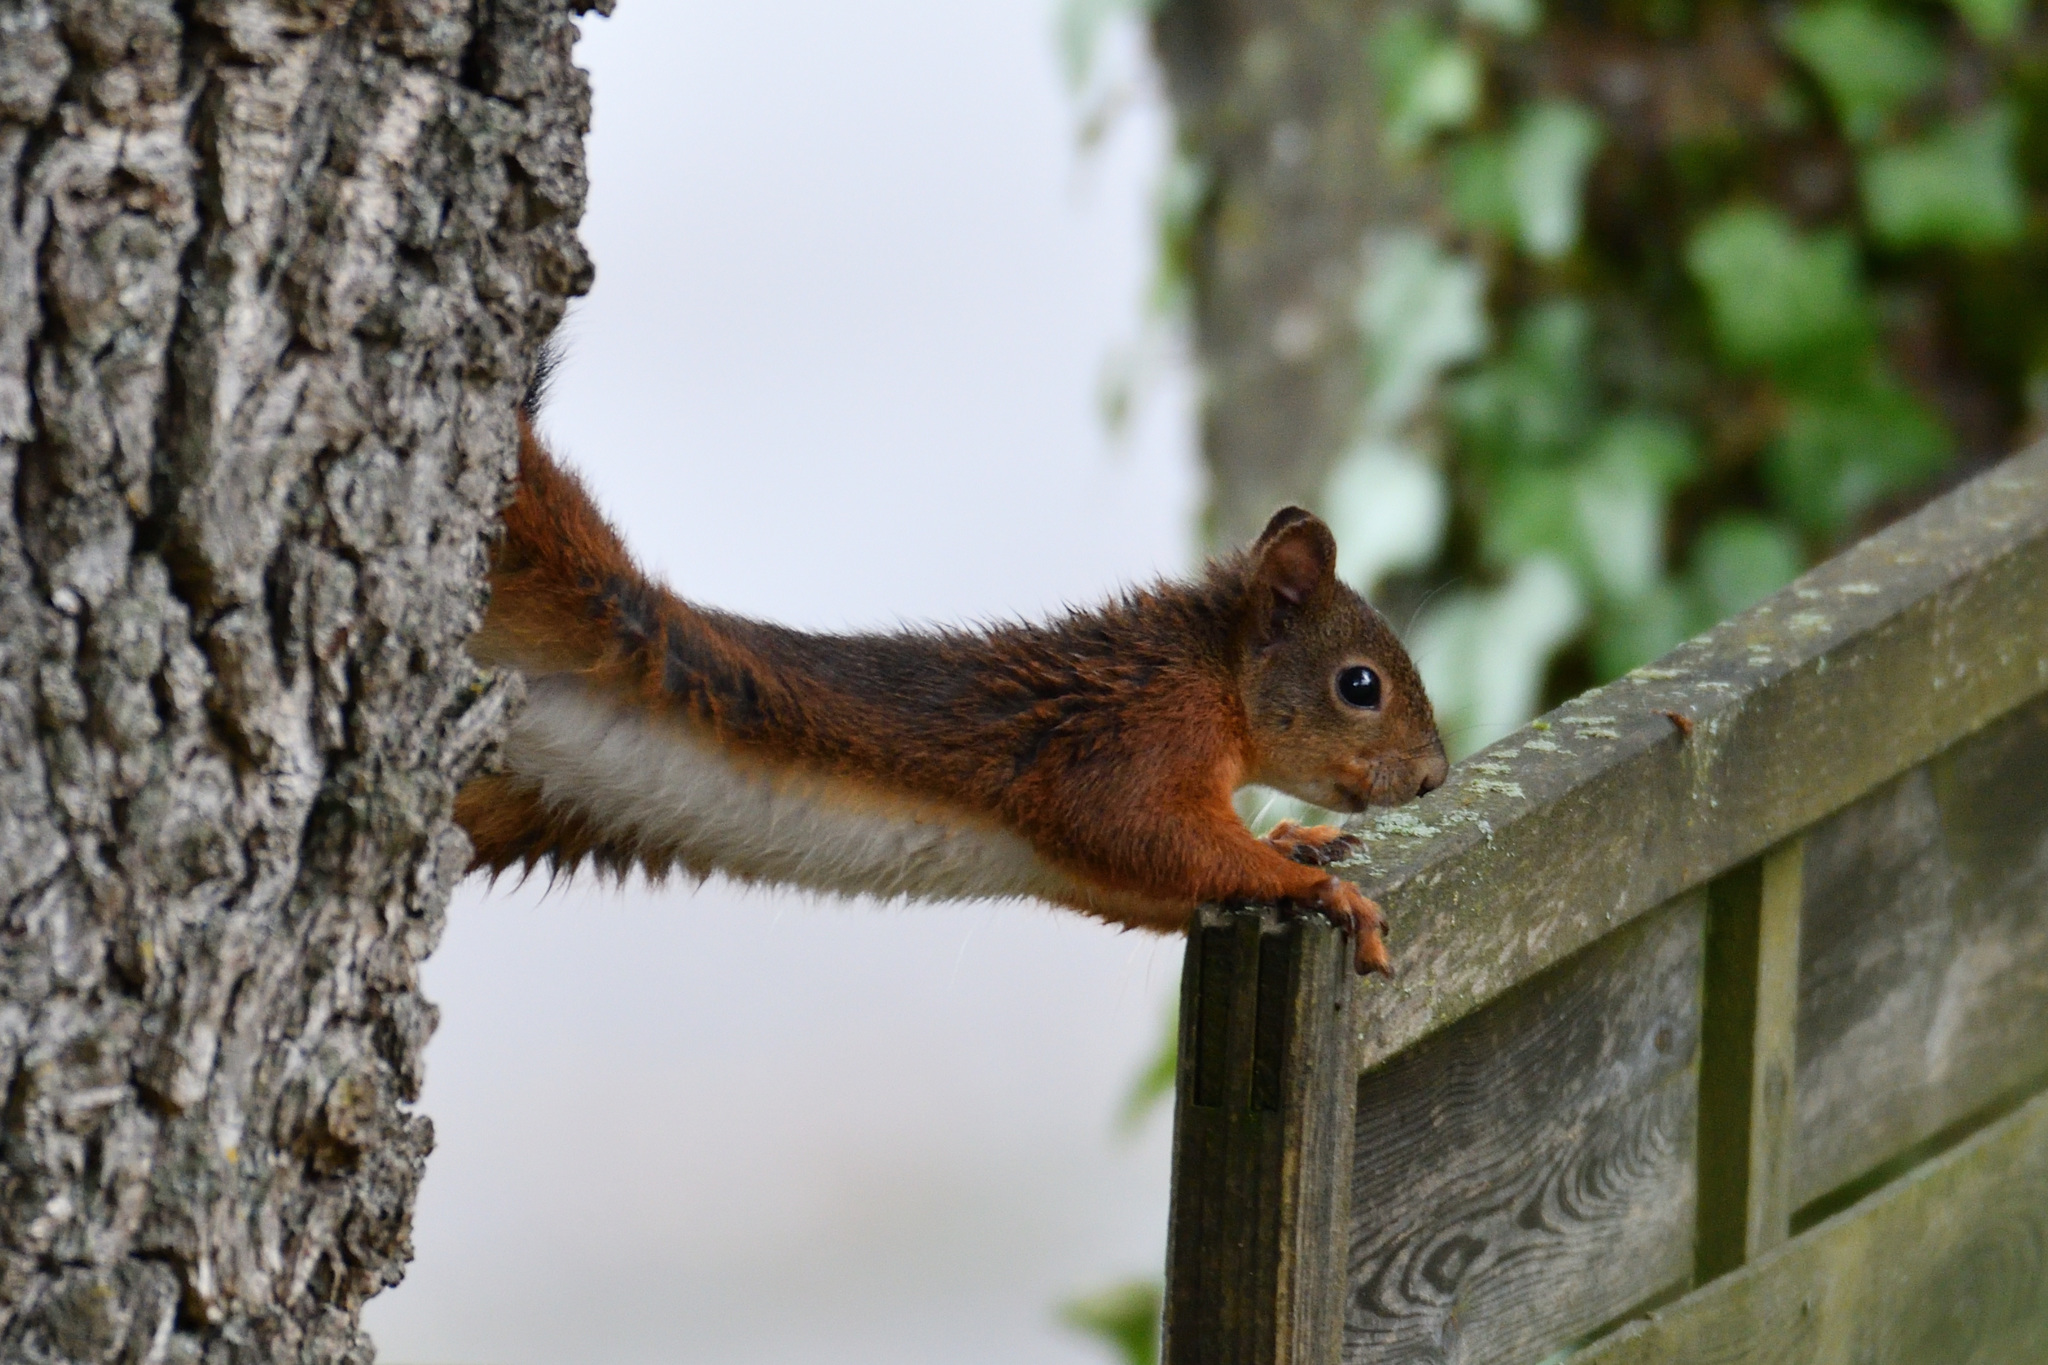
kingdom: Animalia
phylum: Chordata
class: Mammalia
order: Rodentia
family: Sciuridae
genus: Sciurus
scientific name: Sciurus vulgaris
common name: Eurasian red squirrel
